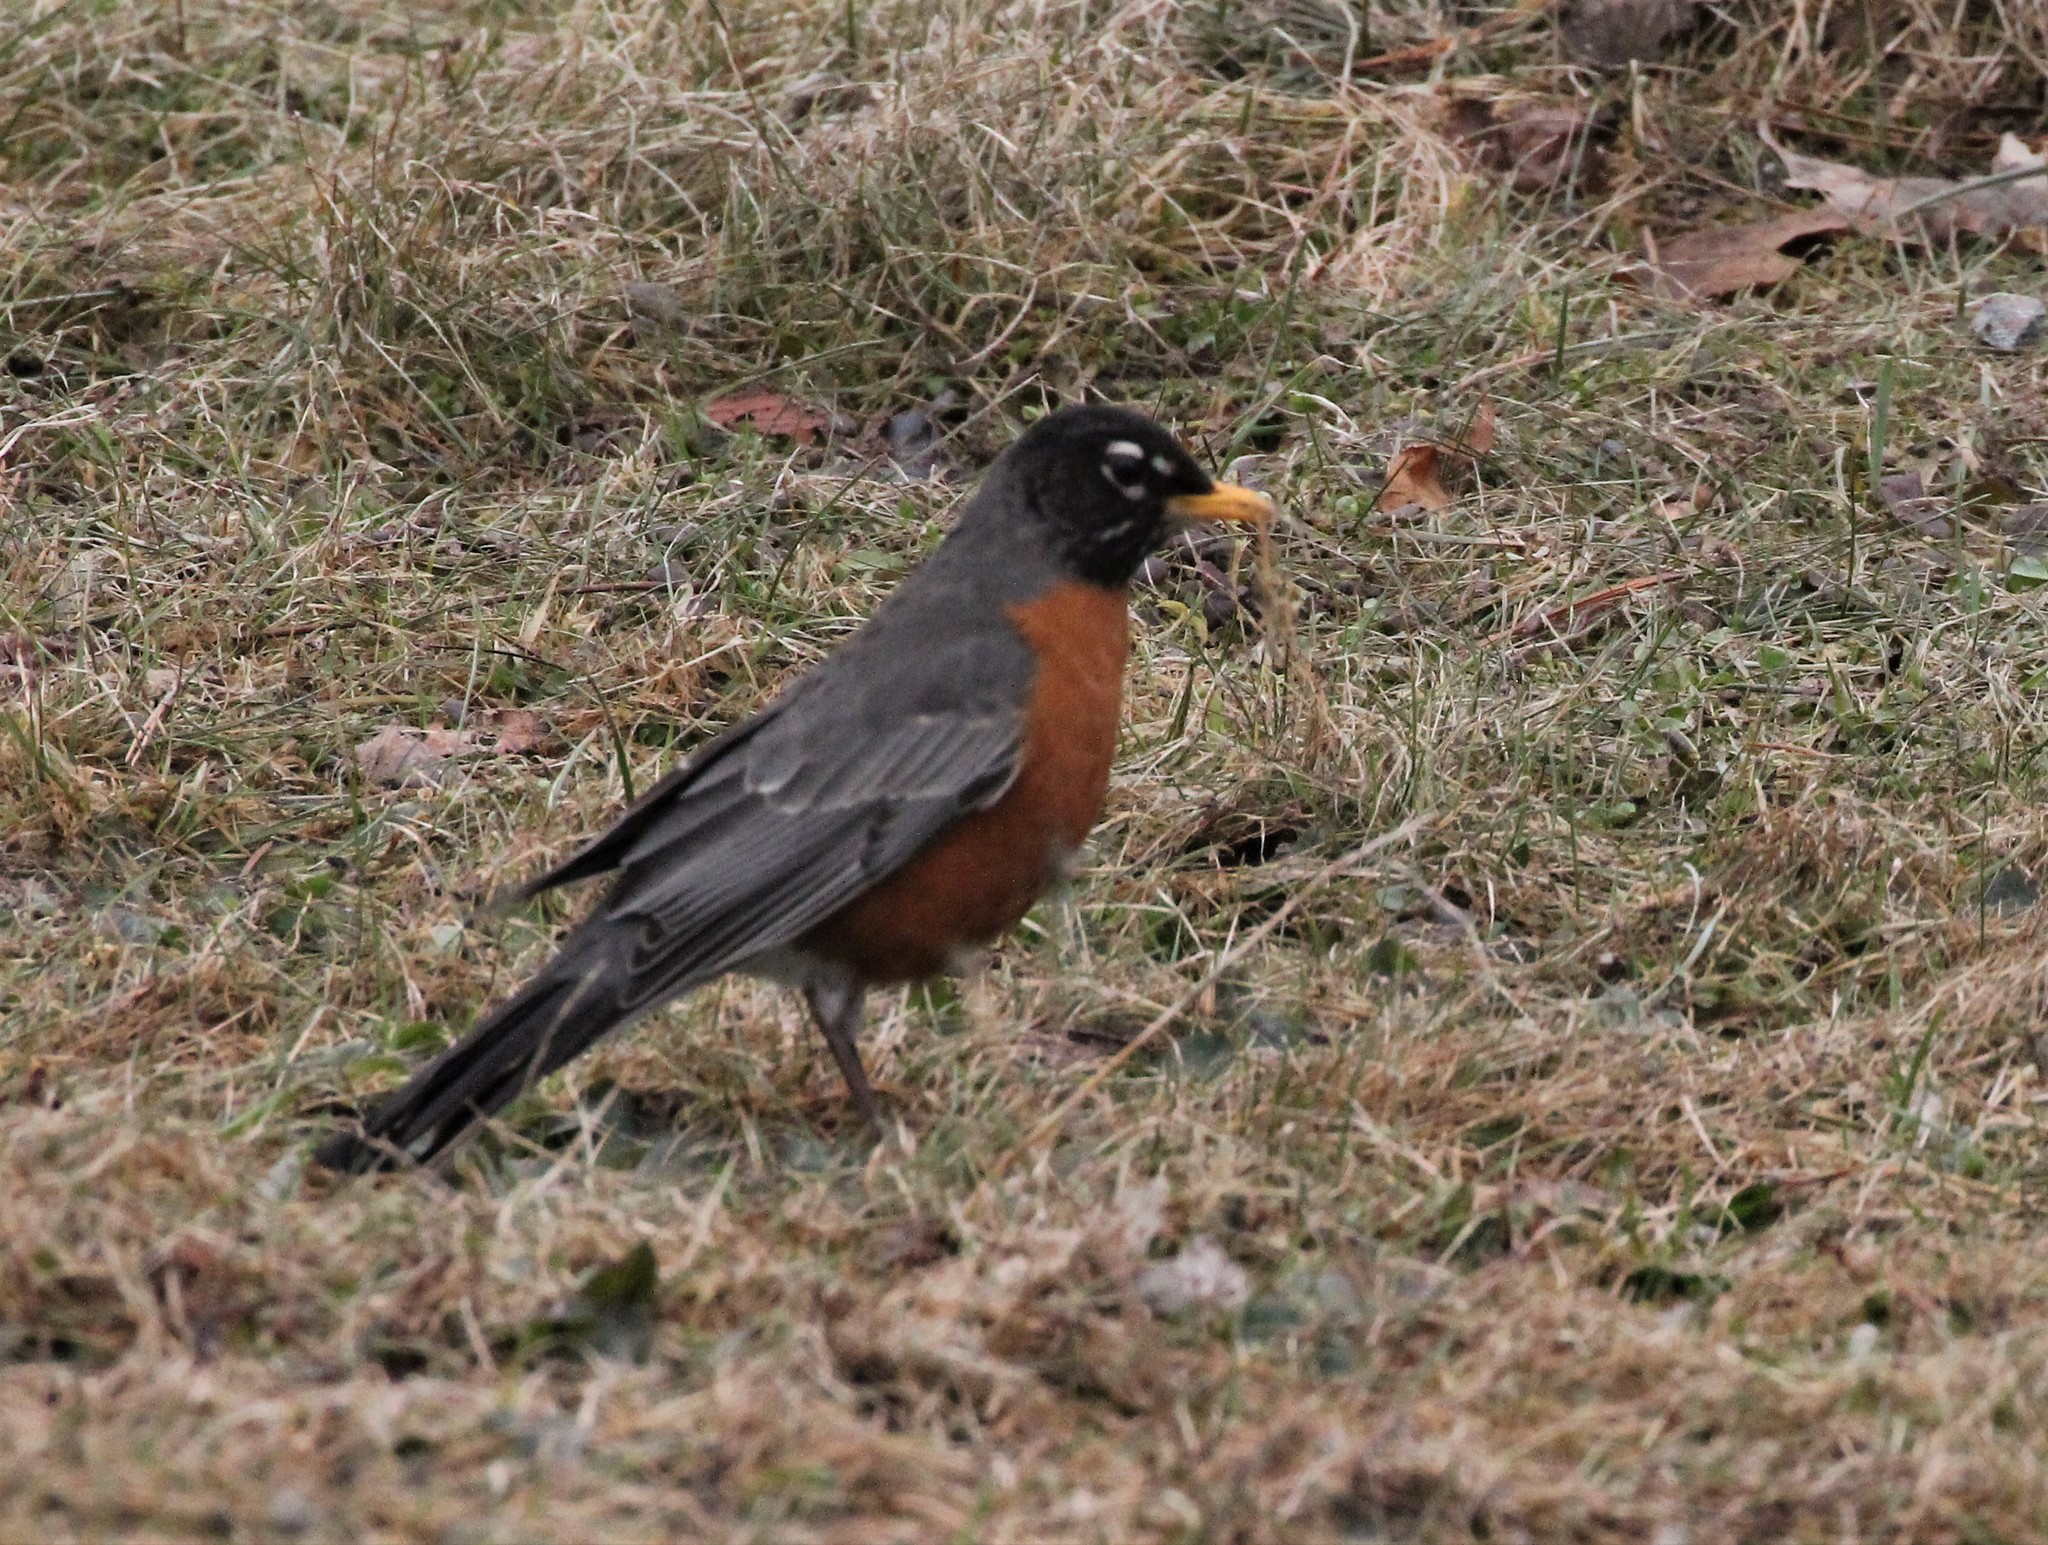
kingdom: Animalia
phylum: Chordata
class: Aves
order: Passeriformes
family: Turdidae
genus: Turdus
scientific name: Turdus migratorius
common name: American robin
